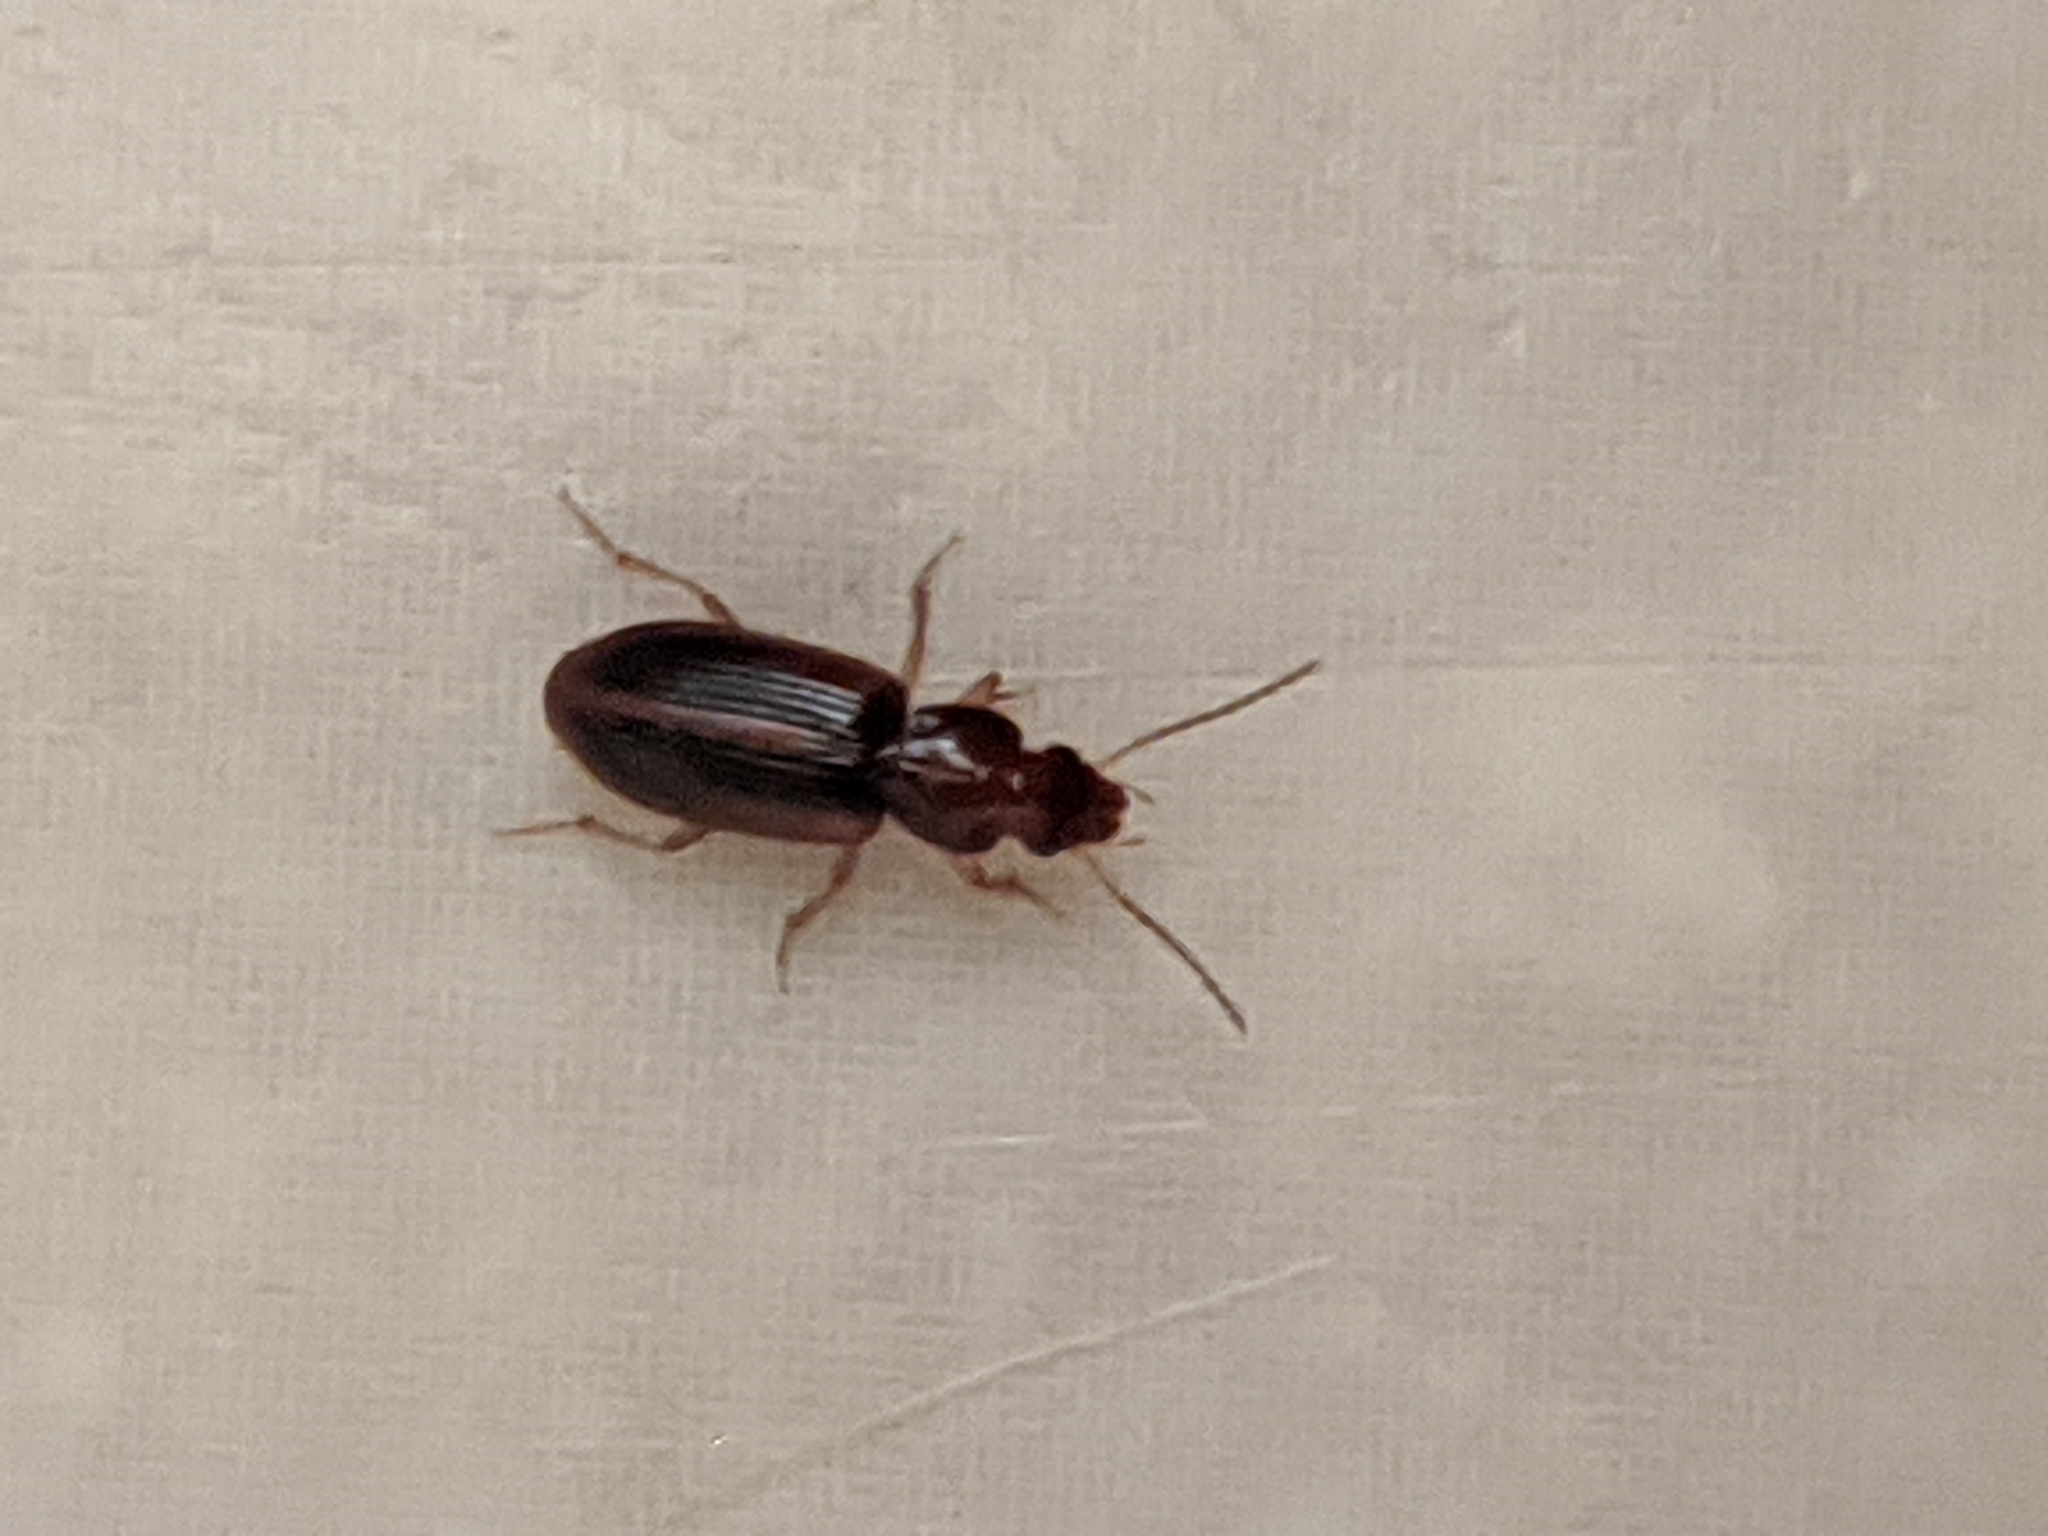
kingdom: Animalia
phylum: Arthropoda
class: Insecta
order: Coleoptera
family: Carabidae
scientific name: Carabidae
